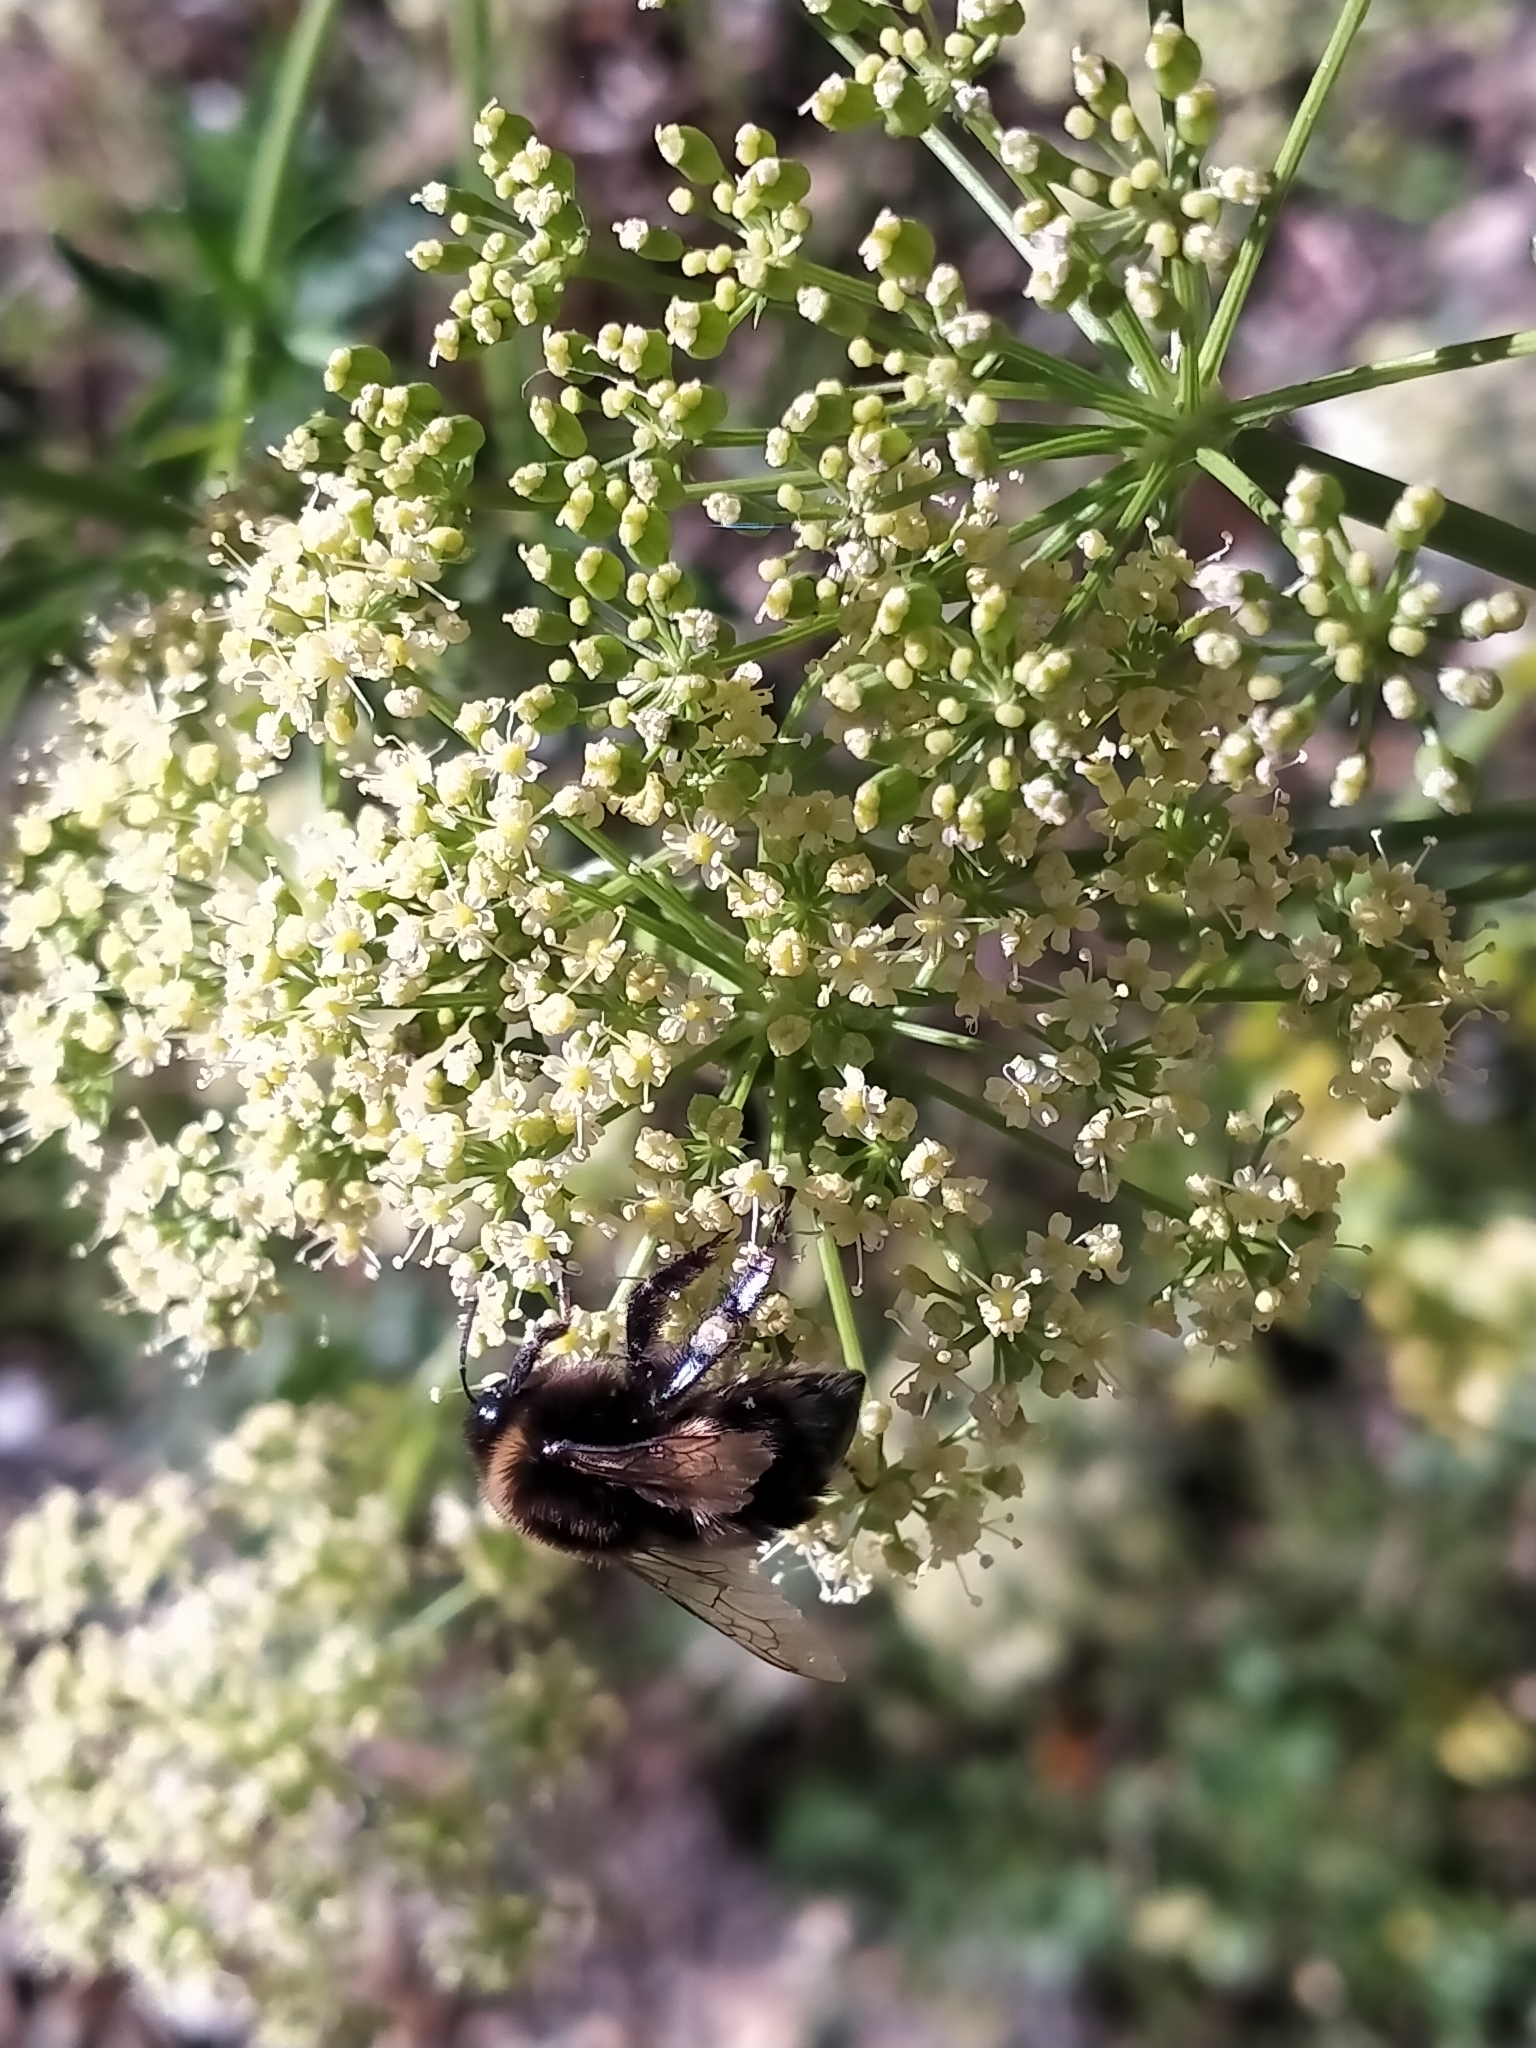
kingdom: Animalia
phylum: Arthropoda
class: Insecta
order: Hymenoptera
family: Apidae
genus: Bombus
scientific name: Bombus terrestris
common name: Buff-tailed bumblebee
